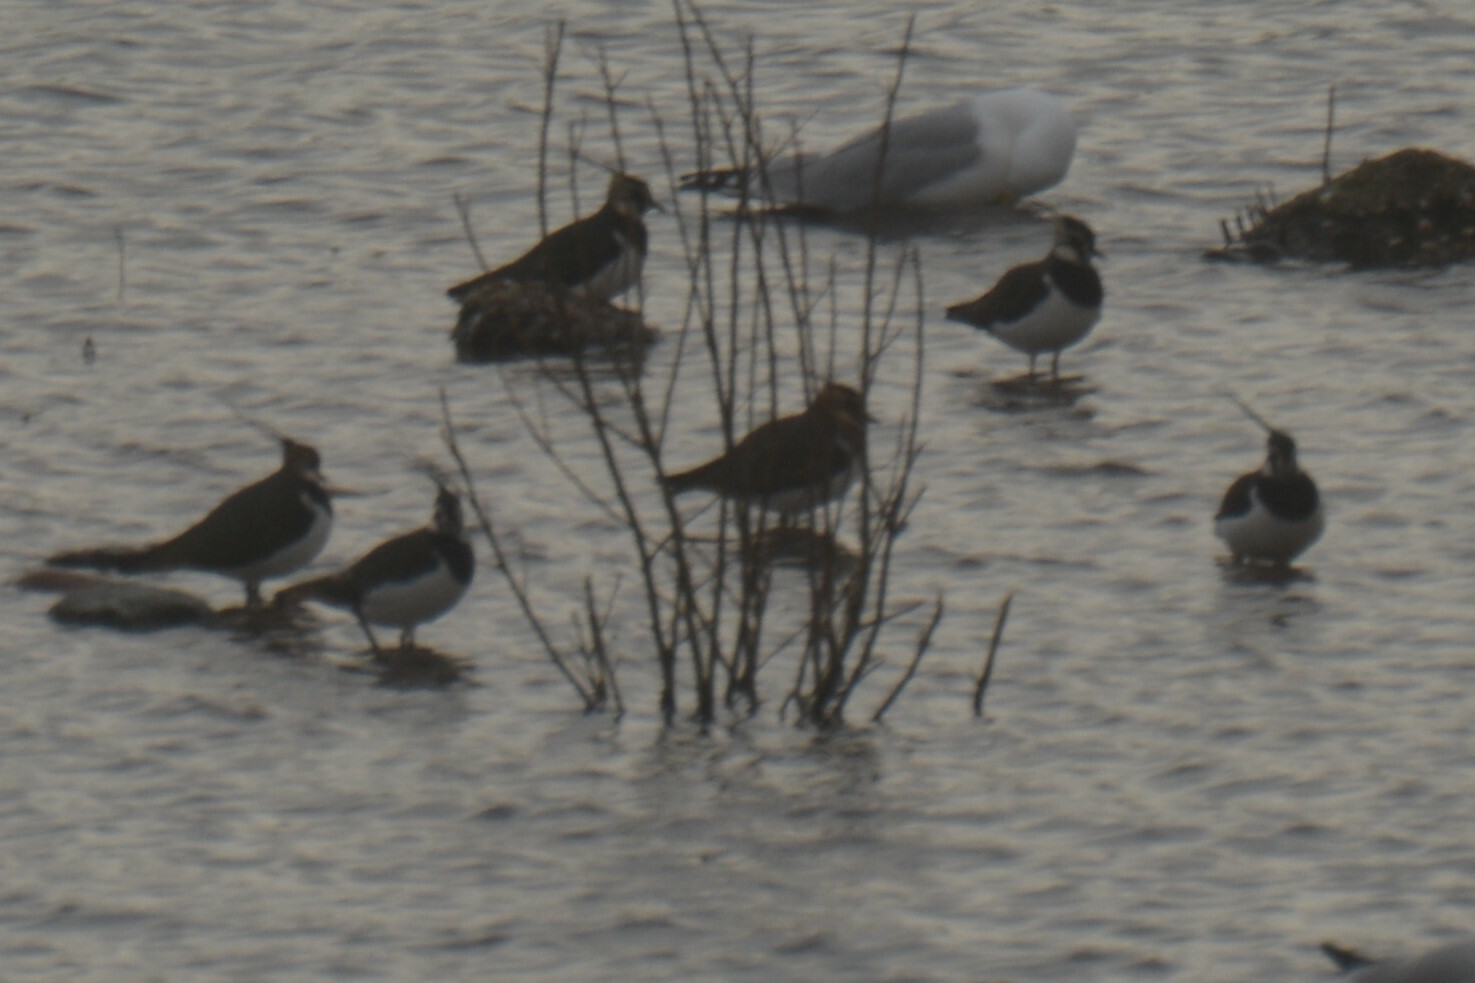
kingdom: Animalia
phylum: Chordata
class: Aves
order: Charadriiformes
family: Charadriidae
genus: Vanellus
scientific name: Vanellus vanellus
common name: Northern lapwing
